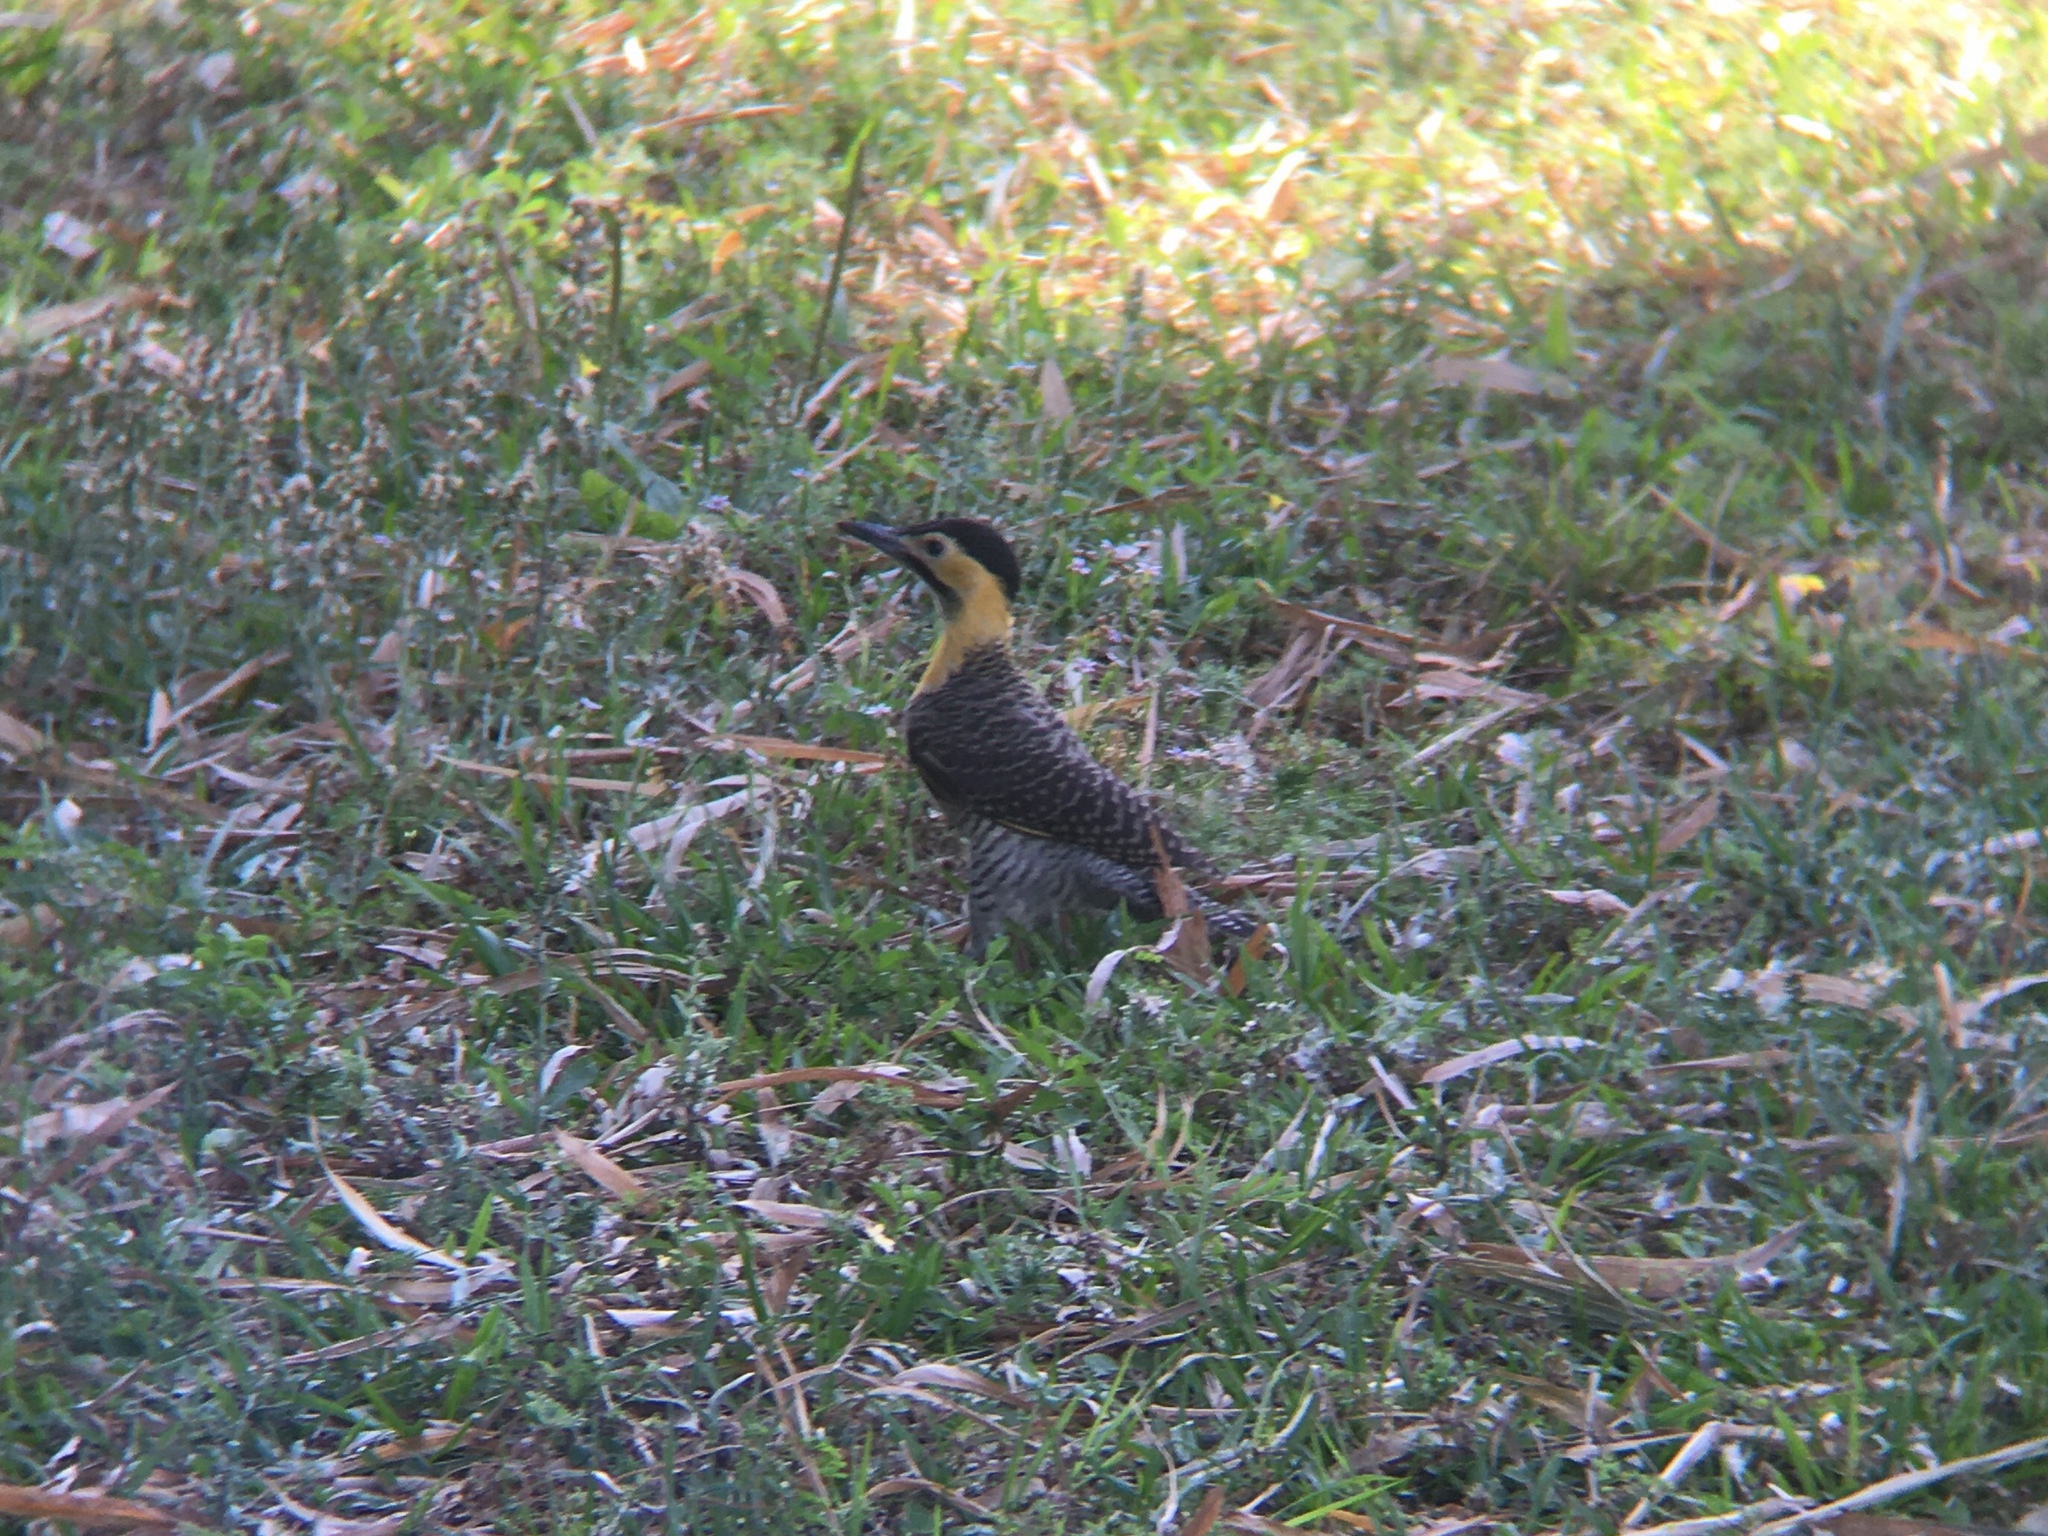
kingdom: Animalia
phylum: Chordata
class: Aves
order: Piciformes
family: Picidae
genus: Colaptes
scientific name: Colaptes campestris
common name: Campo flicker
